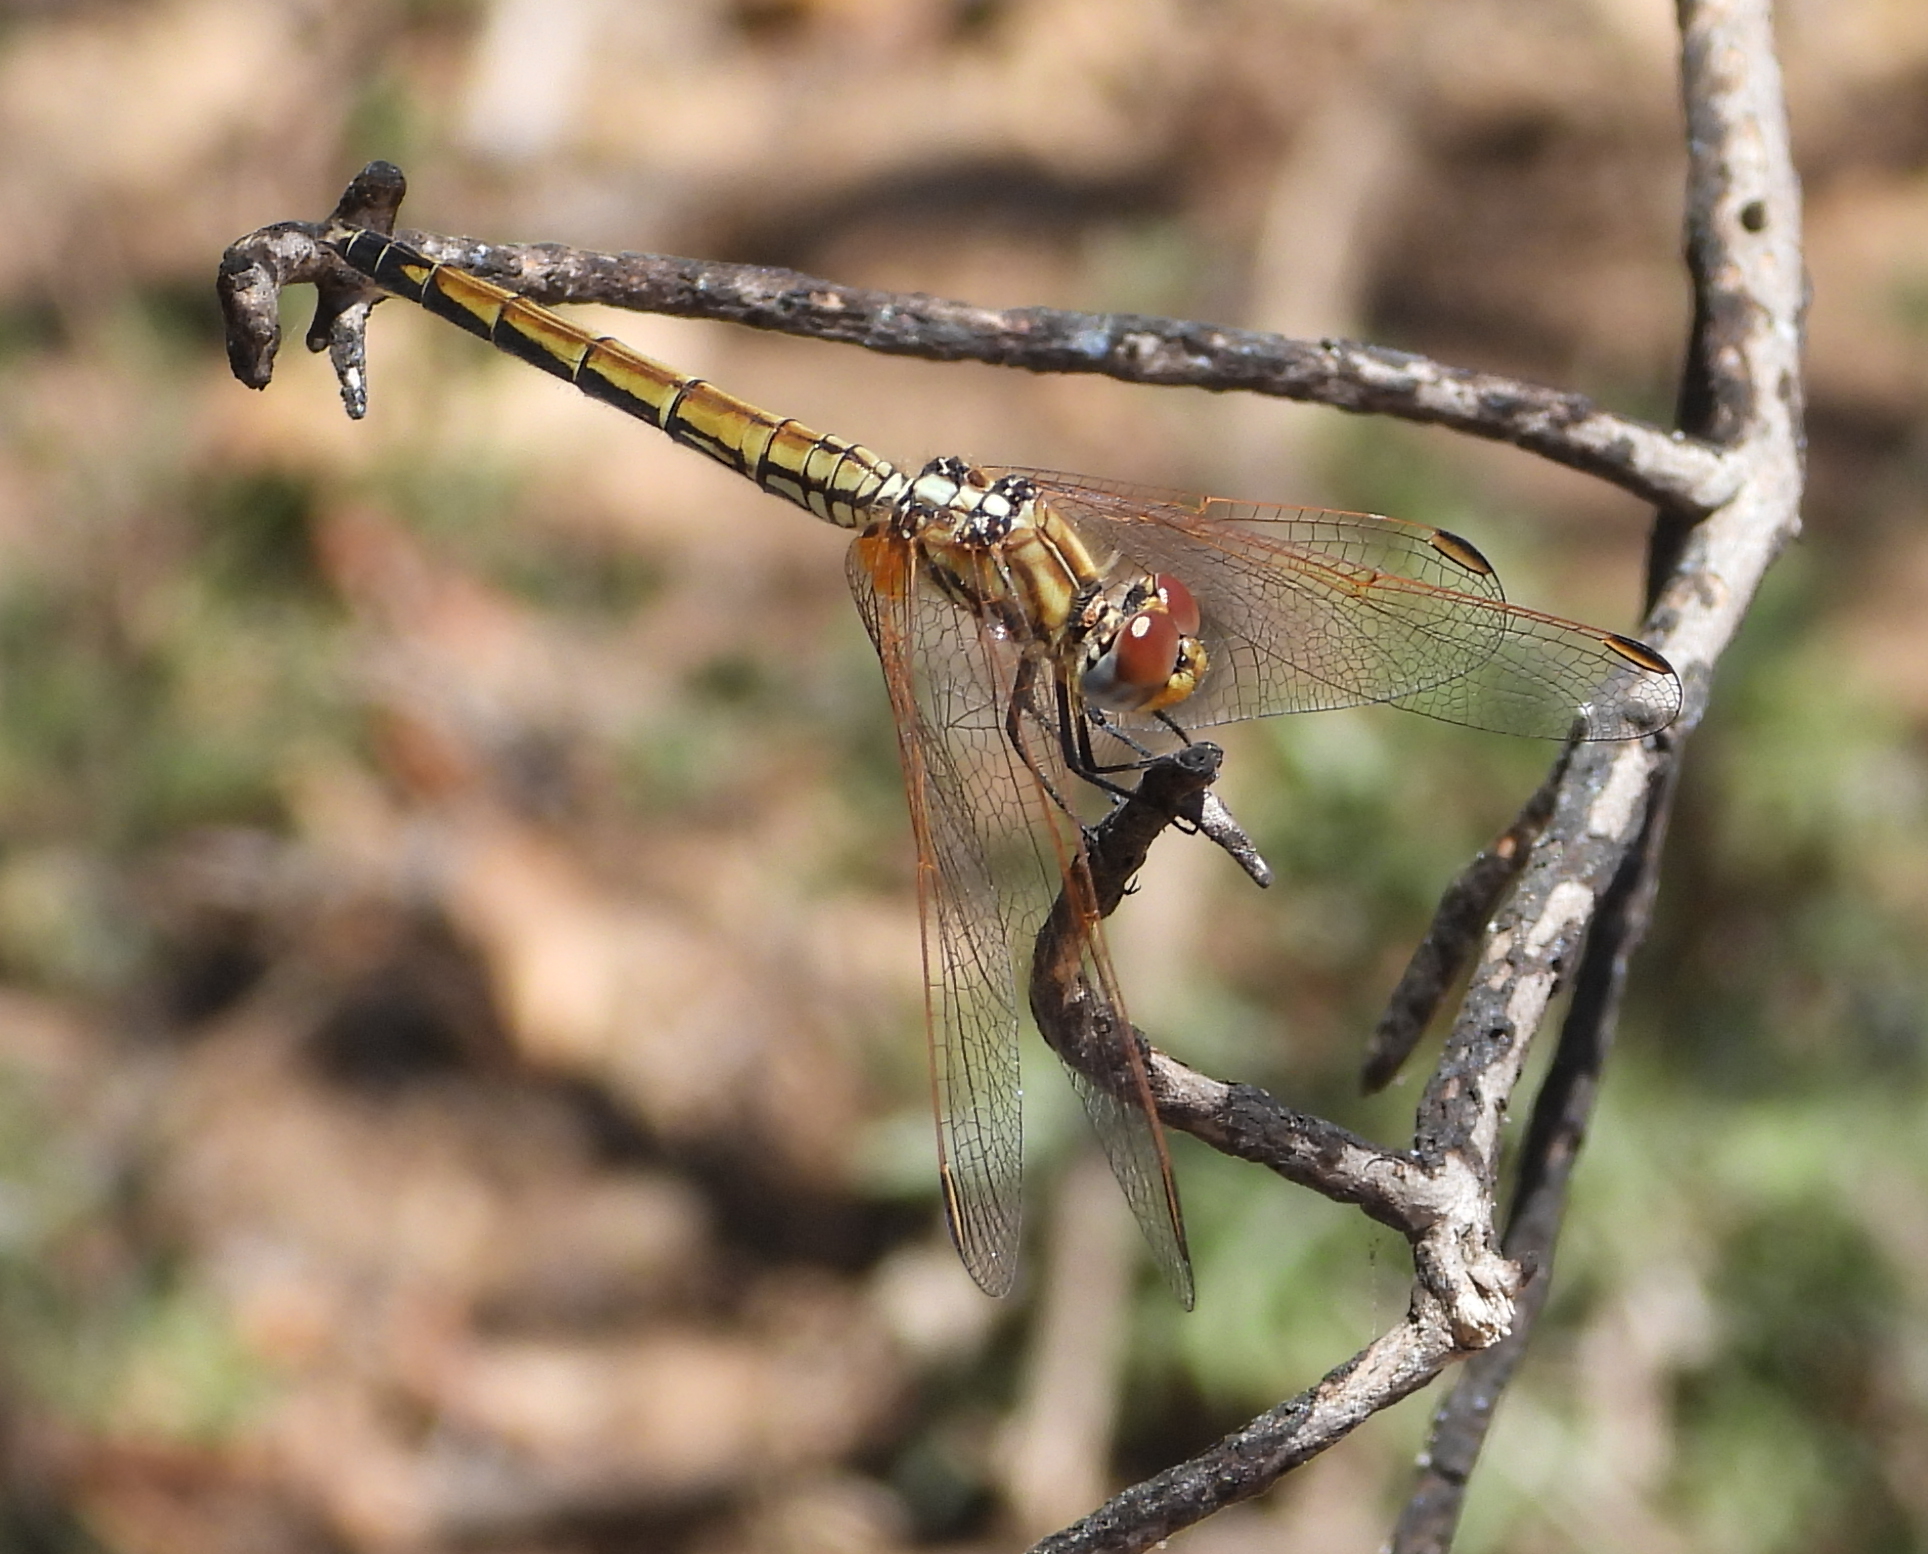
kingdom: Animalia
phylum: Arthropoda
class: Insecta
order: Odonata
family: Libellulidae
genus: Trithemis
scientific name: Trithemis arteriosa
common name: Red-veined dropwing
